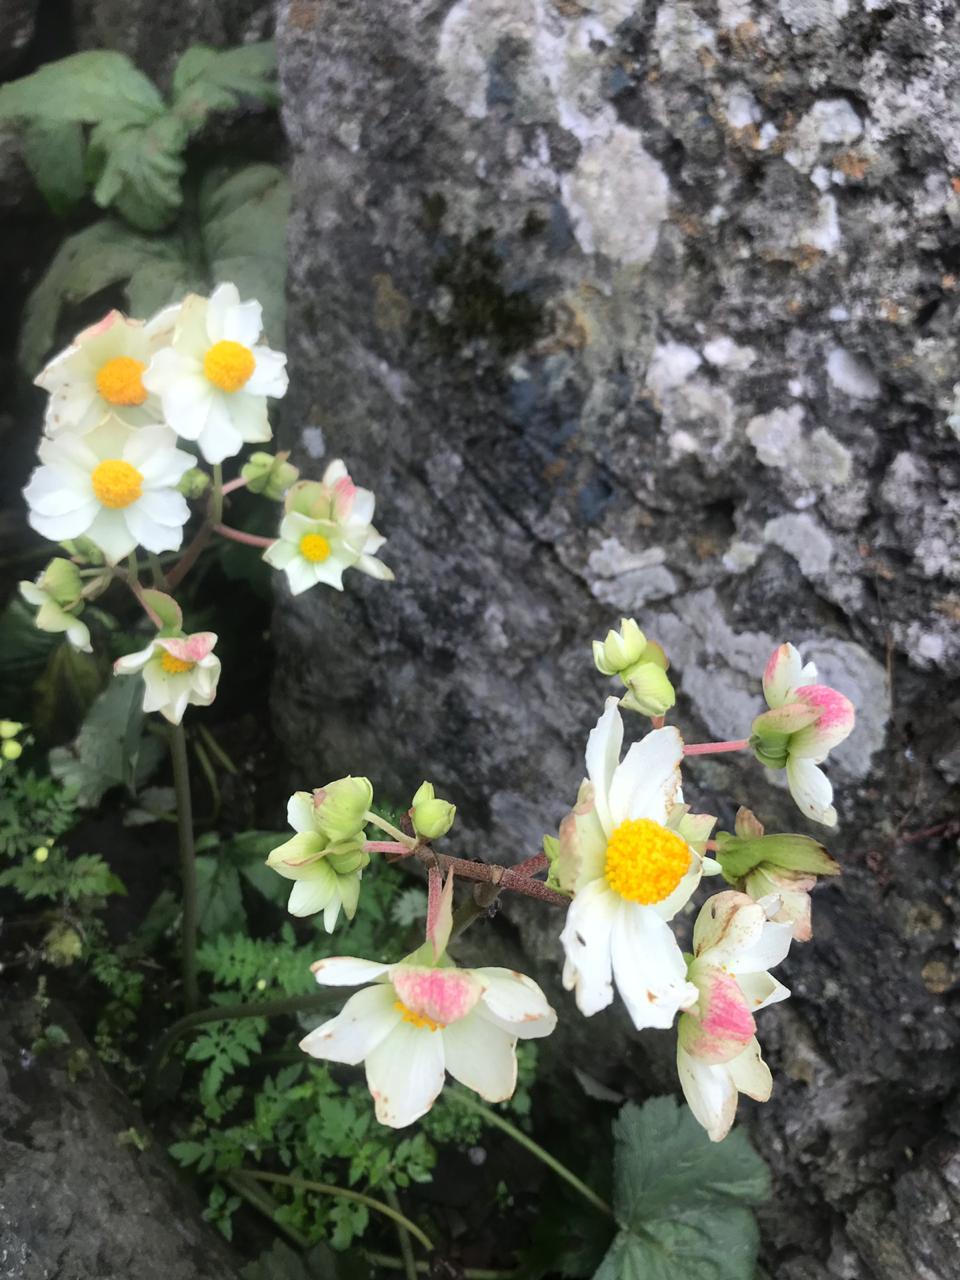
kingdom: Plantae
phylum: Tracheophyta
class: Magnoliopsida
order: Cucurbitales
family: Begoniaceae
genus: Begonia
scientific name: Begonia octopetala
